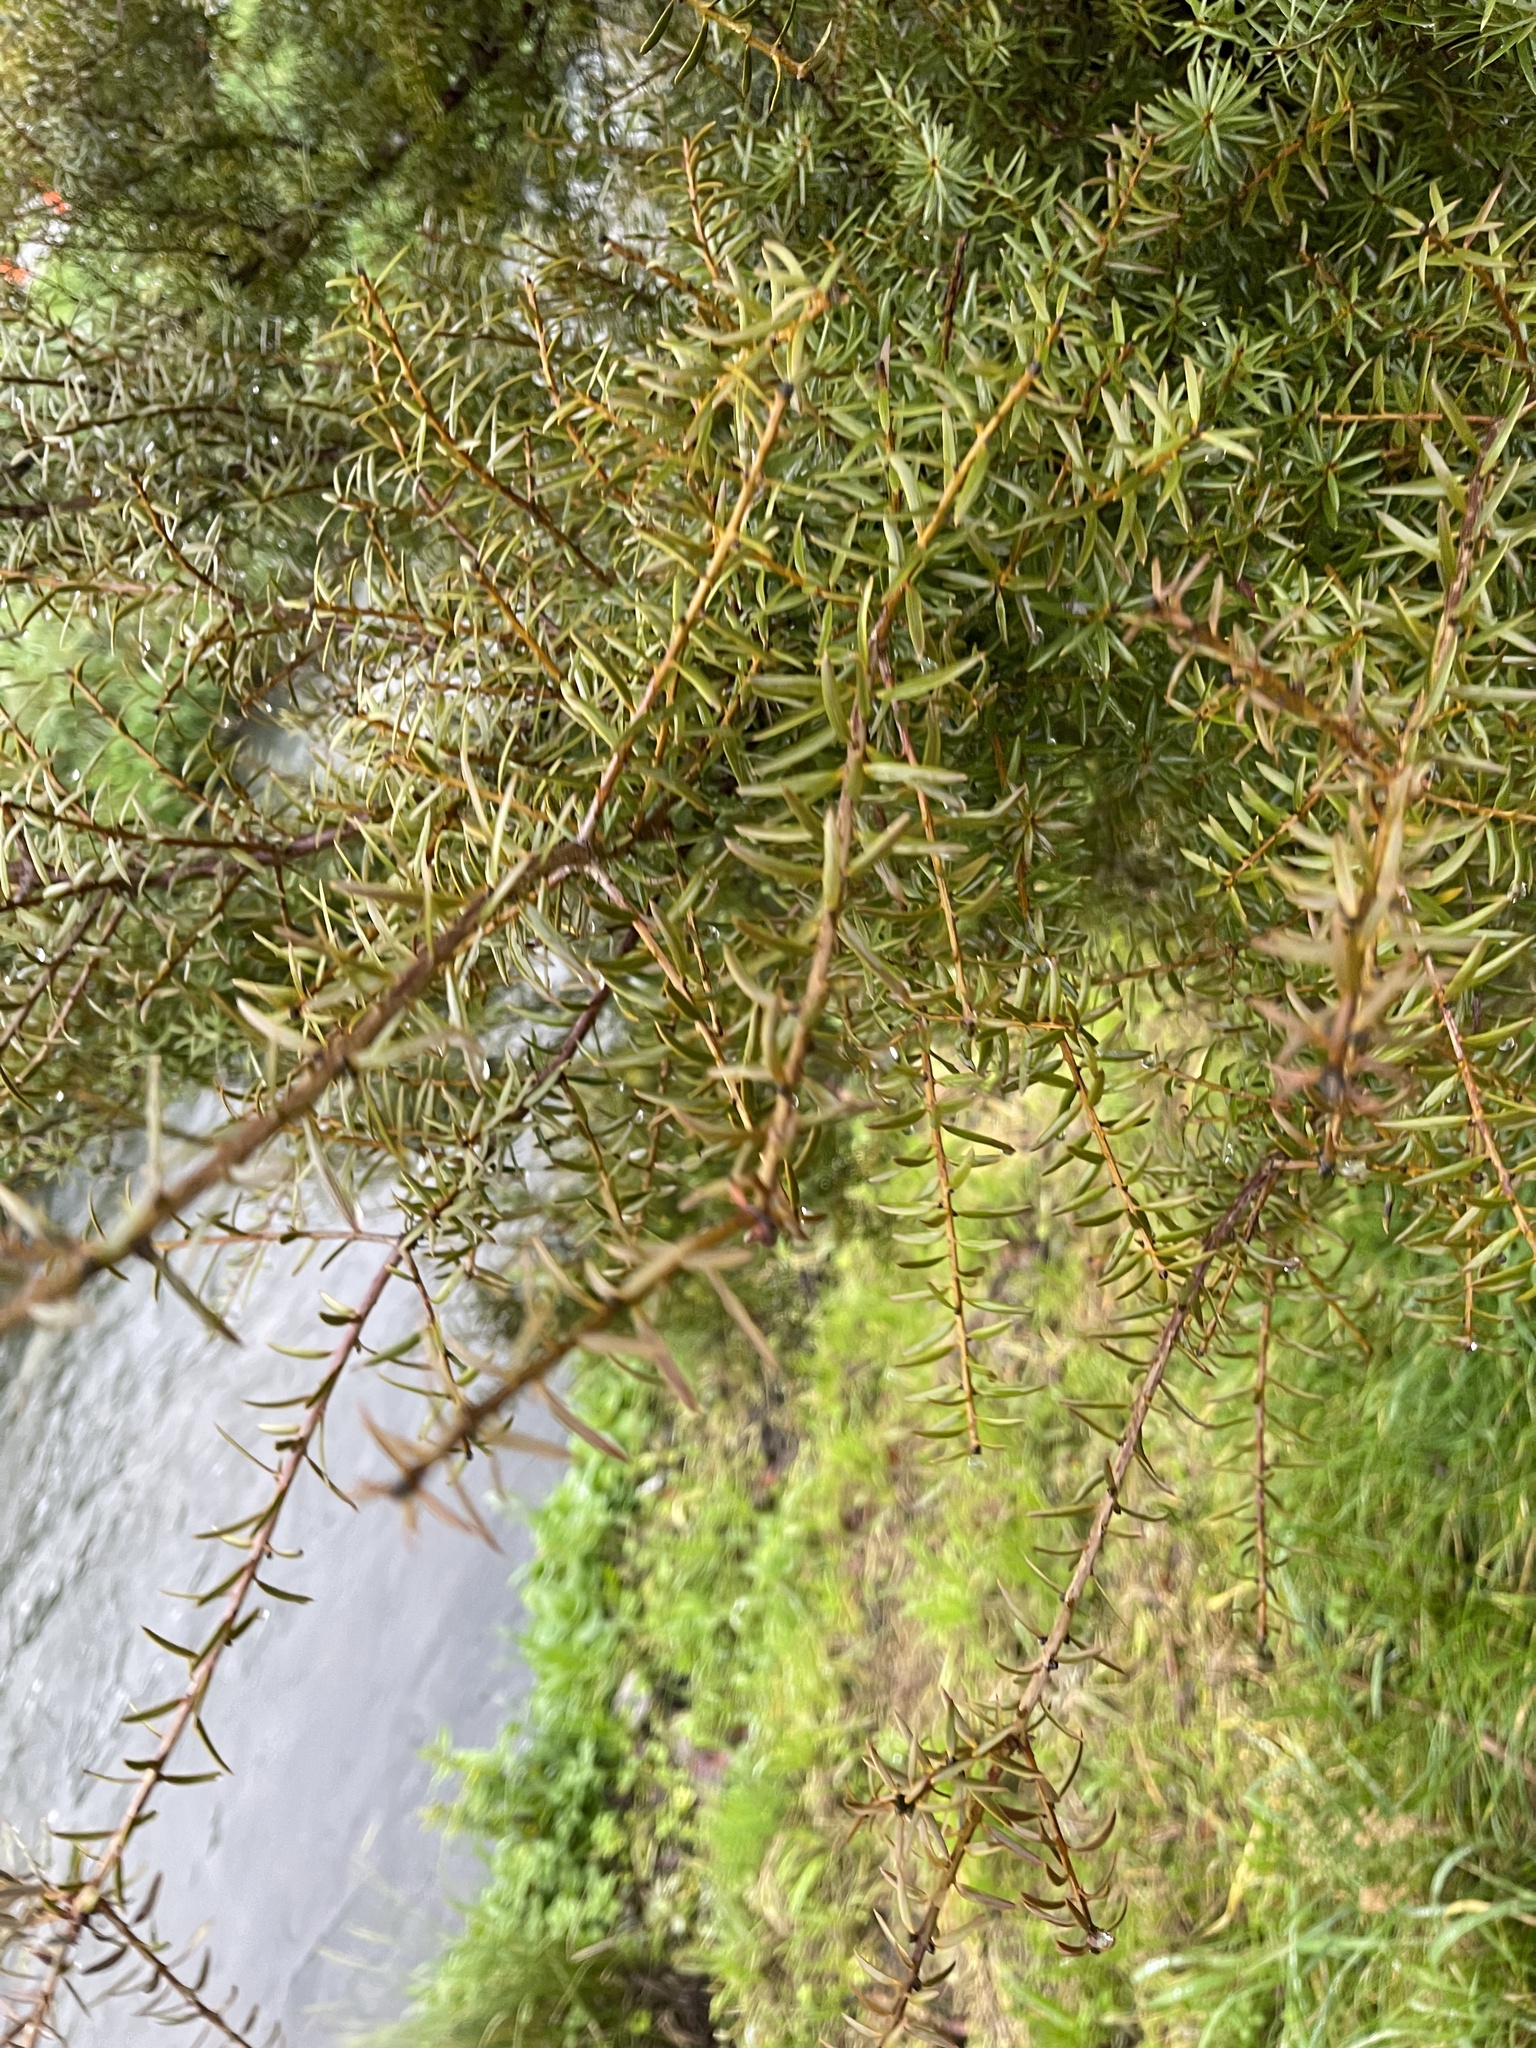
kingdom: Plantae
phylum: Tracheophyta
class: Pinopsida
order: Pinales
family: Podocarpaceae
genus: Podocarpus
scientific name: Podocarpus totara
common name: Totara
